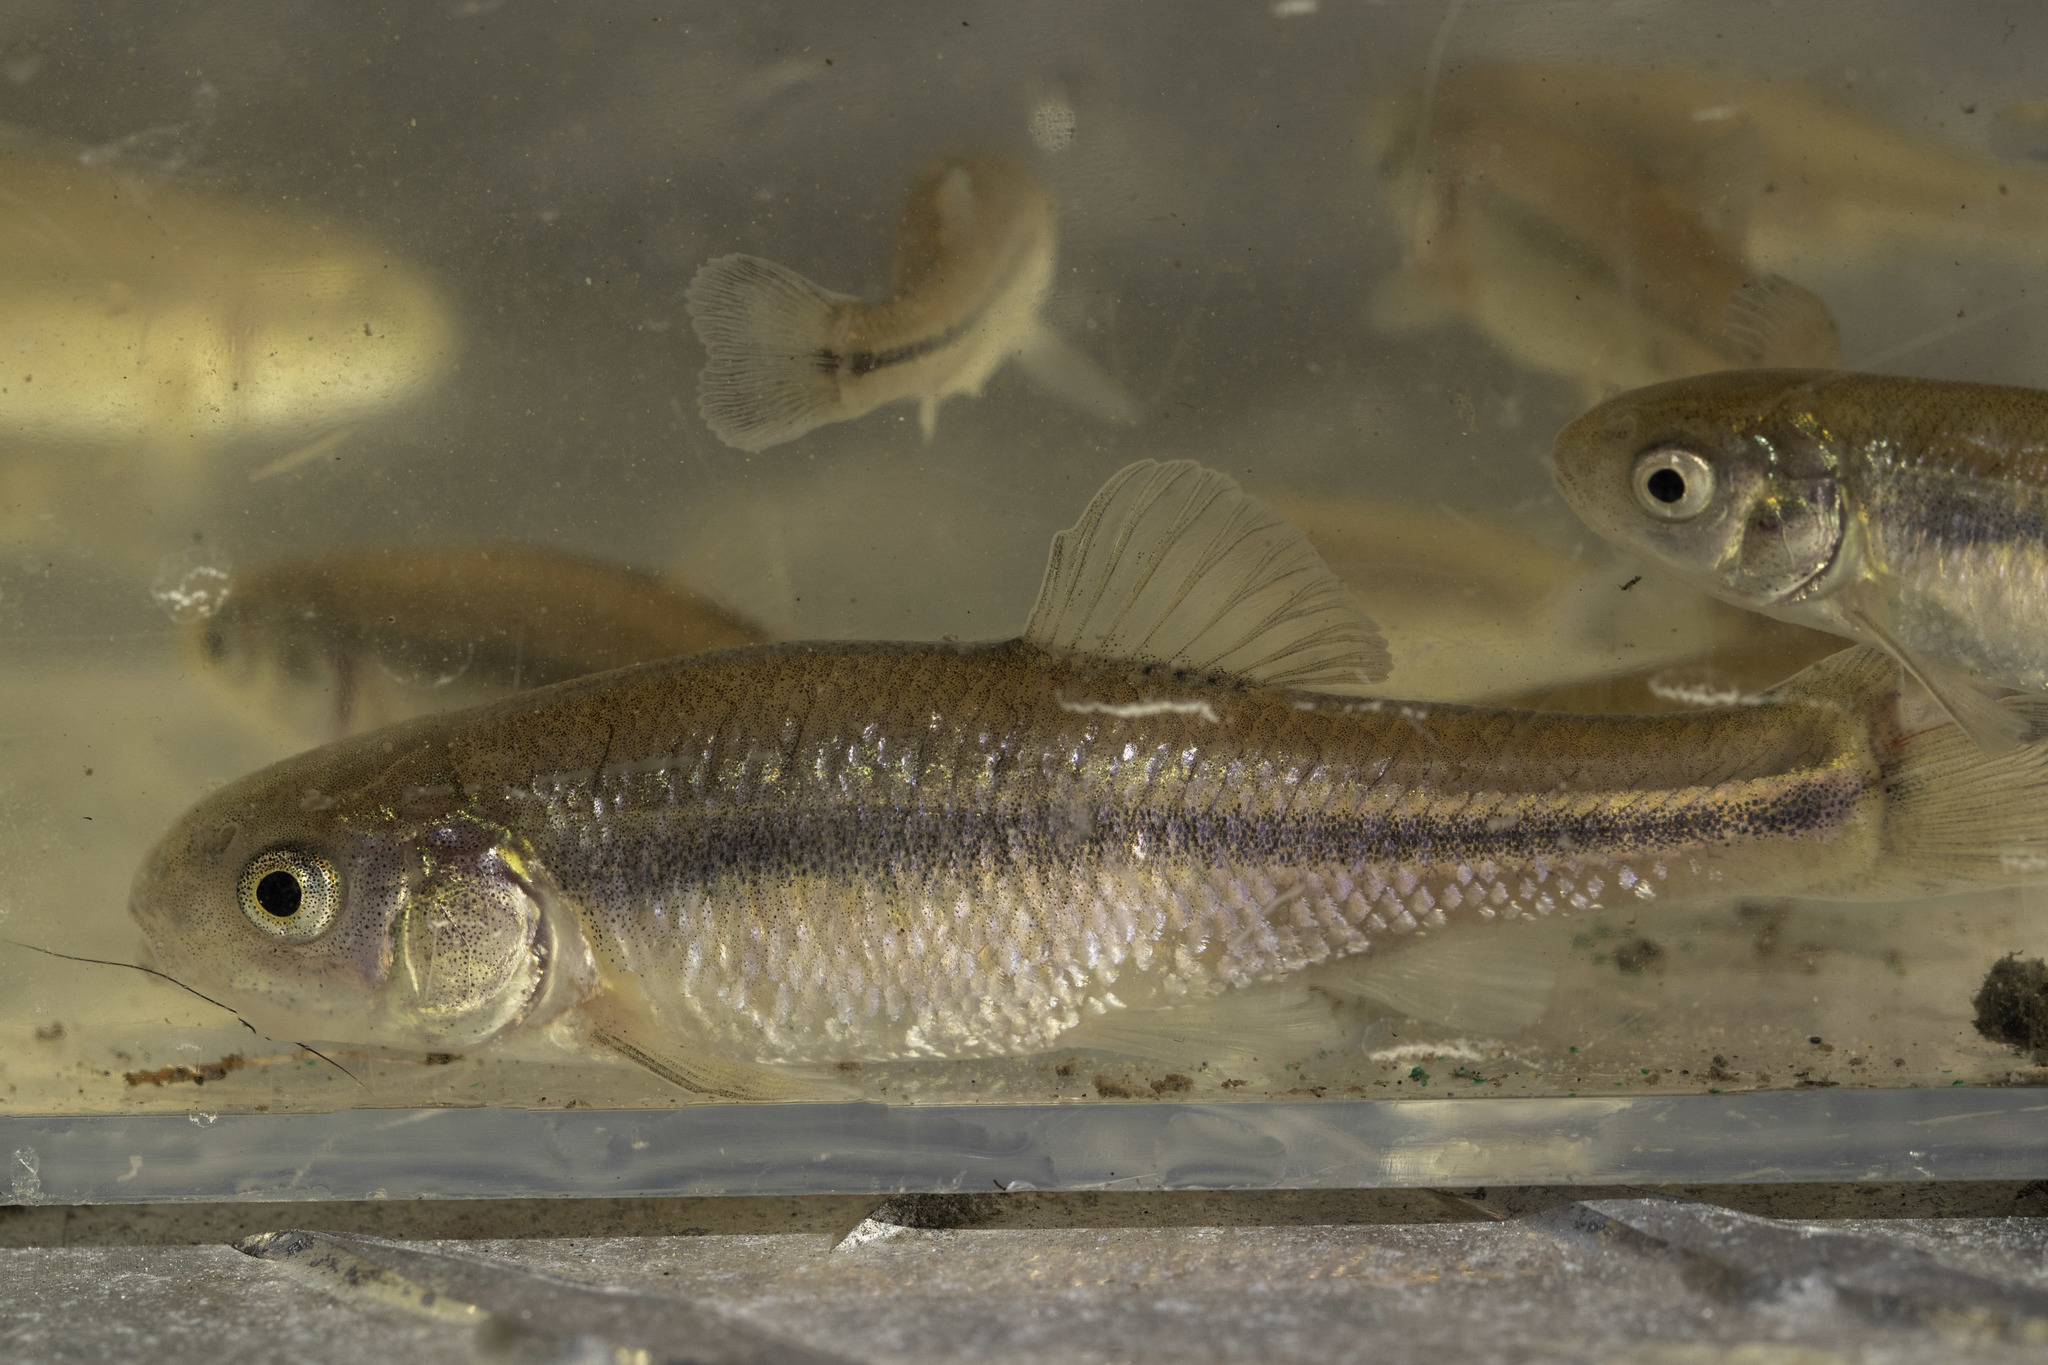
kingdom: Animalia
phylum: Chordata
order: Cypriniformes
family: Cyprinidae
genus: Pimephales
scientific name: Pimephales promelas
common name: Fathead minnow
